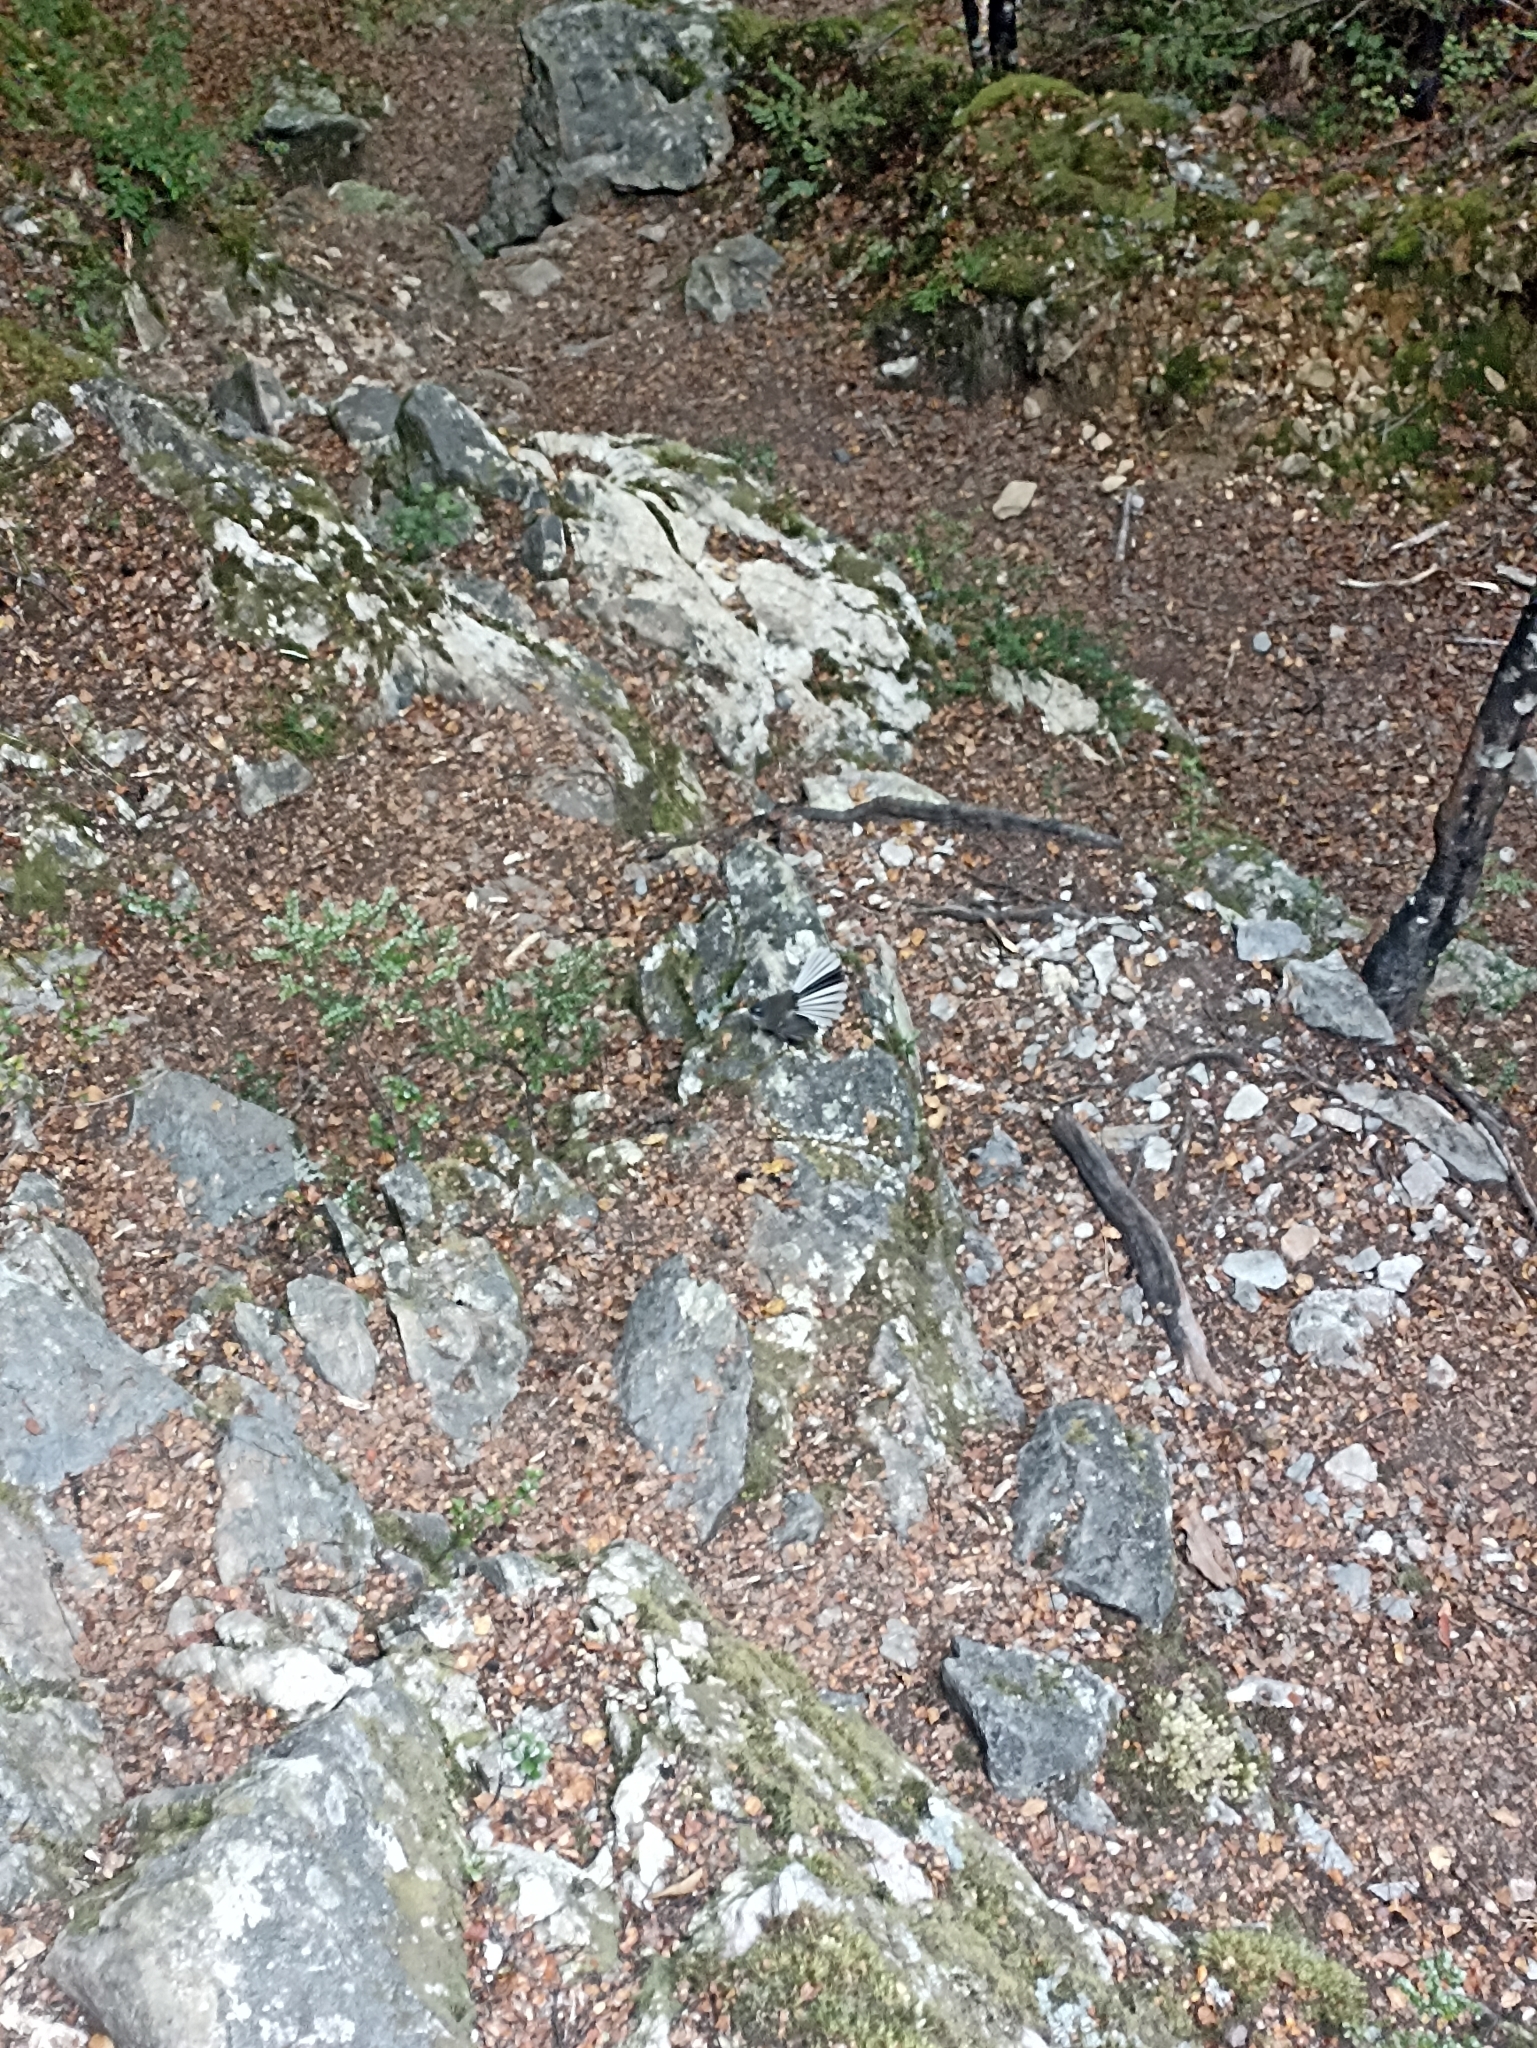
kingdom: Animalia
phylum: Chordata
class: Aves
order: Passeriformes
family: Rhipiduridae
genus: Rhipidura
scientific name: Rhipidura fuliginosa
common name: New zealand fantail
